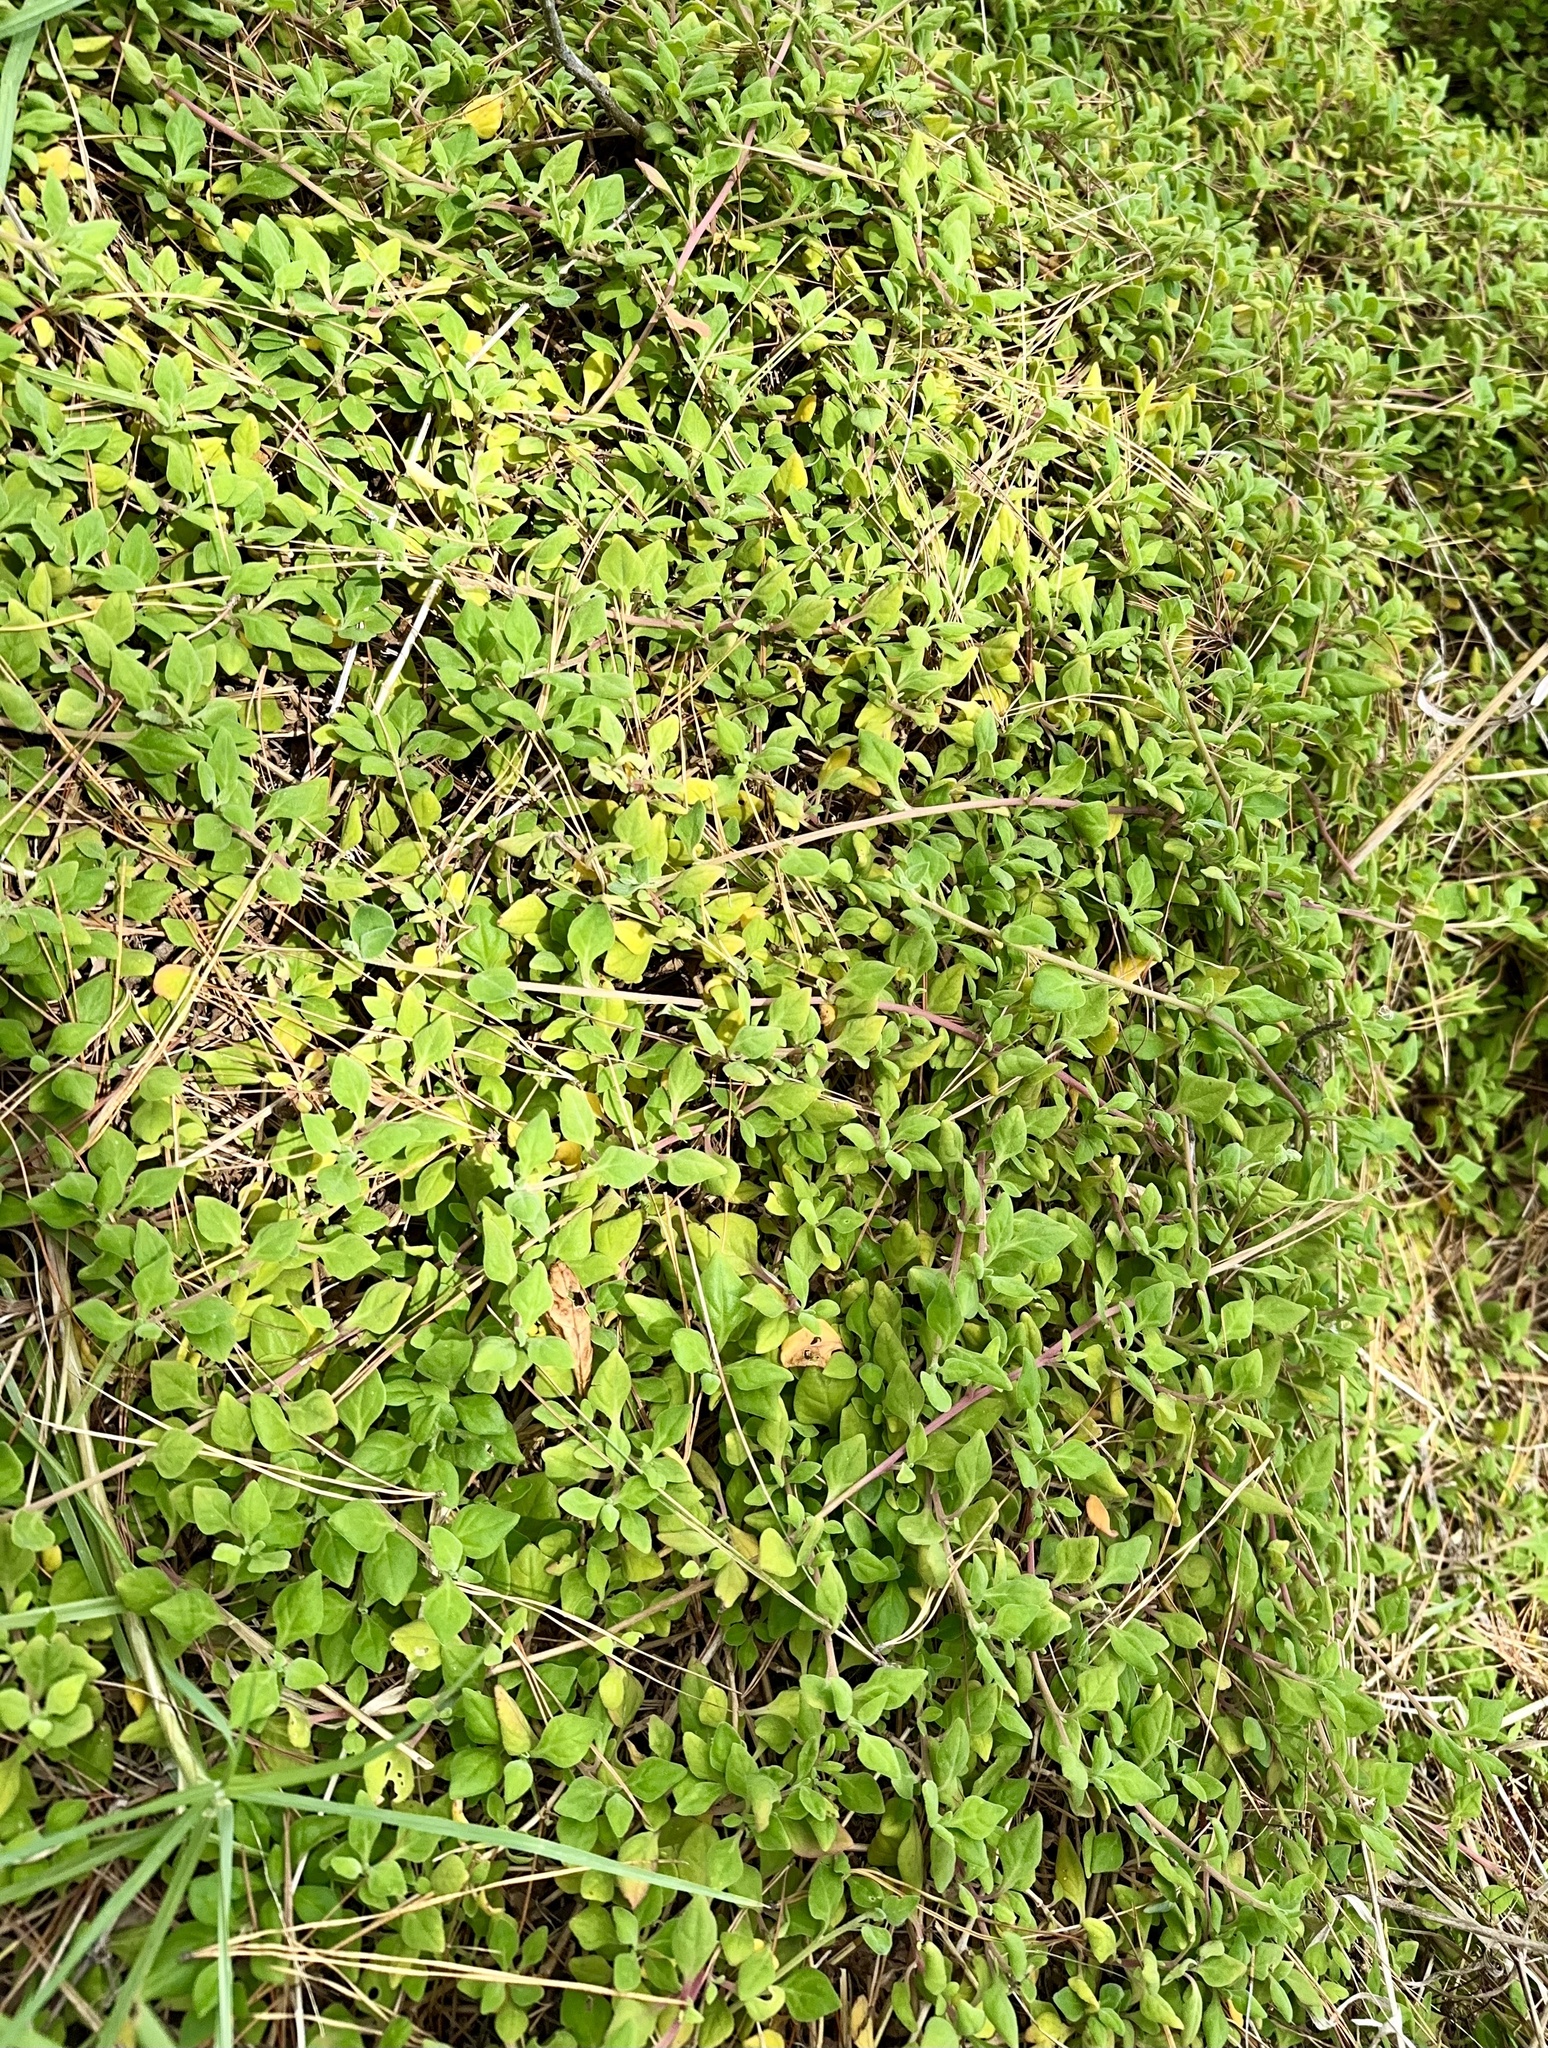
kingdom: Plantae
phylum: Tracheophyta
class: Magnoliopsida
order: Caryophyllales
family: Aizoaceae
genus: Tetragonia
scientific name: Tetragonia implexicoma
